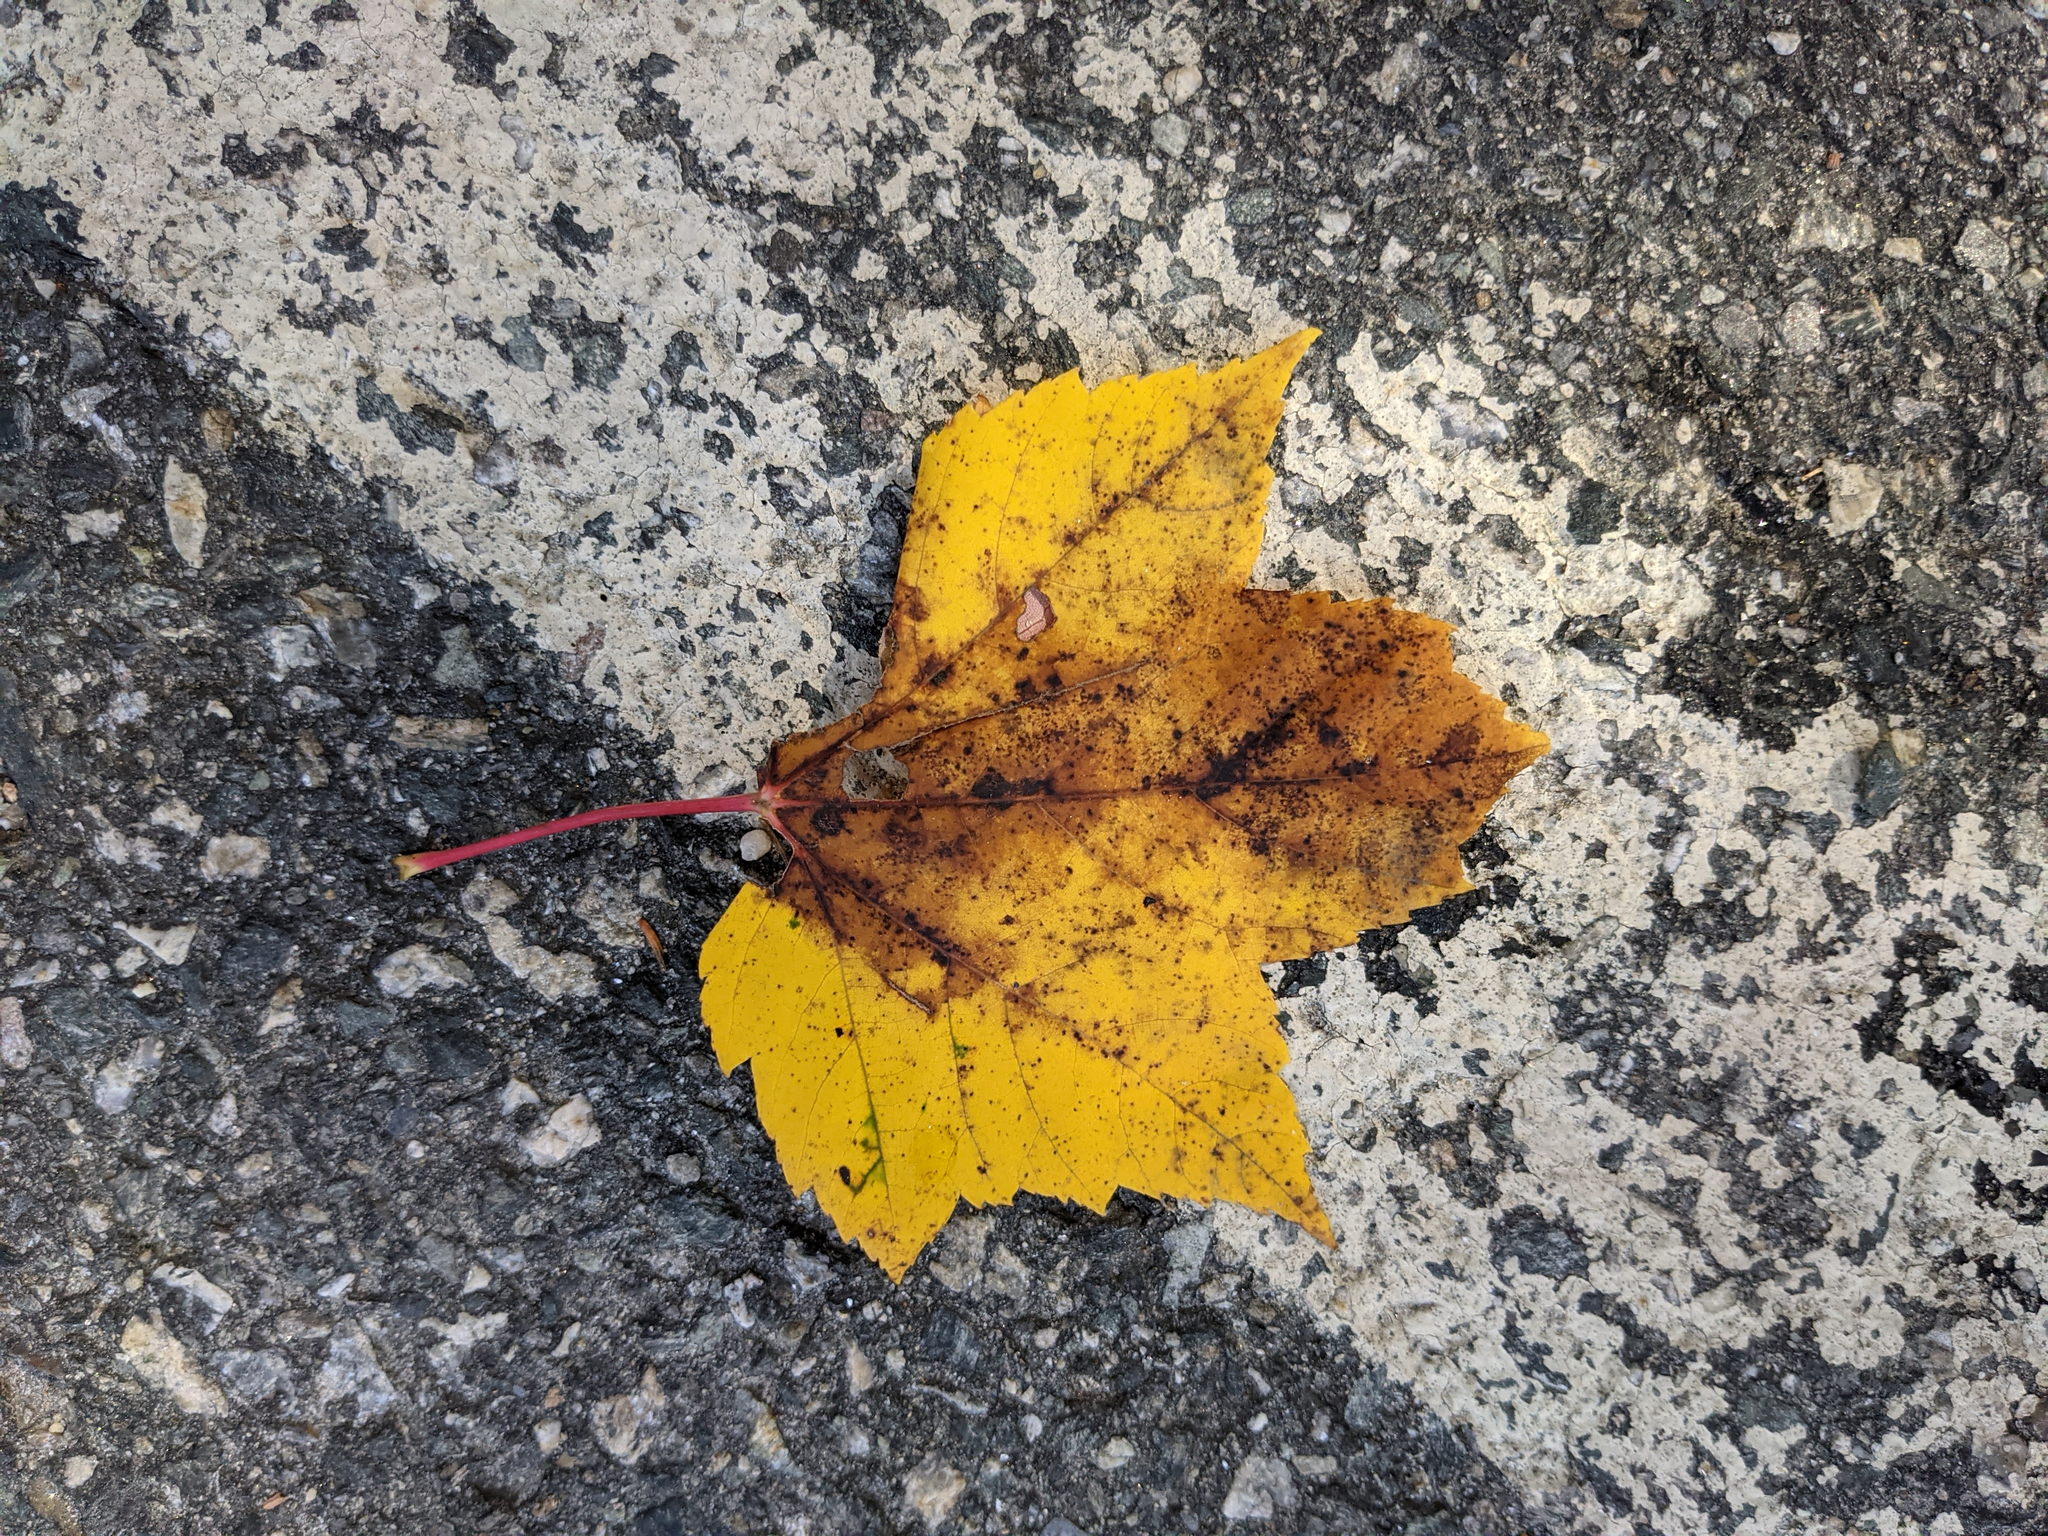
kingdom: Plantae
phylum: Tracheophyta
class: Magnoliopsida
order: Sapindales
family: Sapindaceae
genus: Acer
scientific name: Acer rubrum
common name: Red maple
